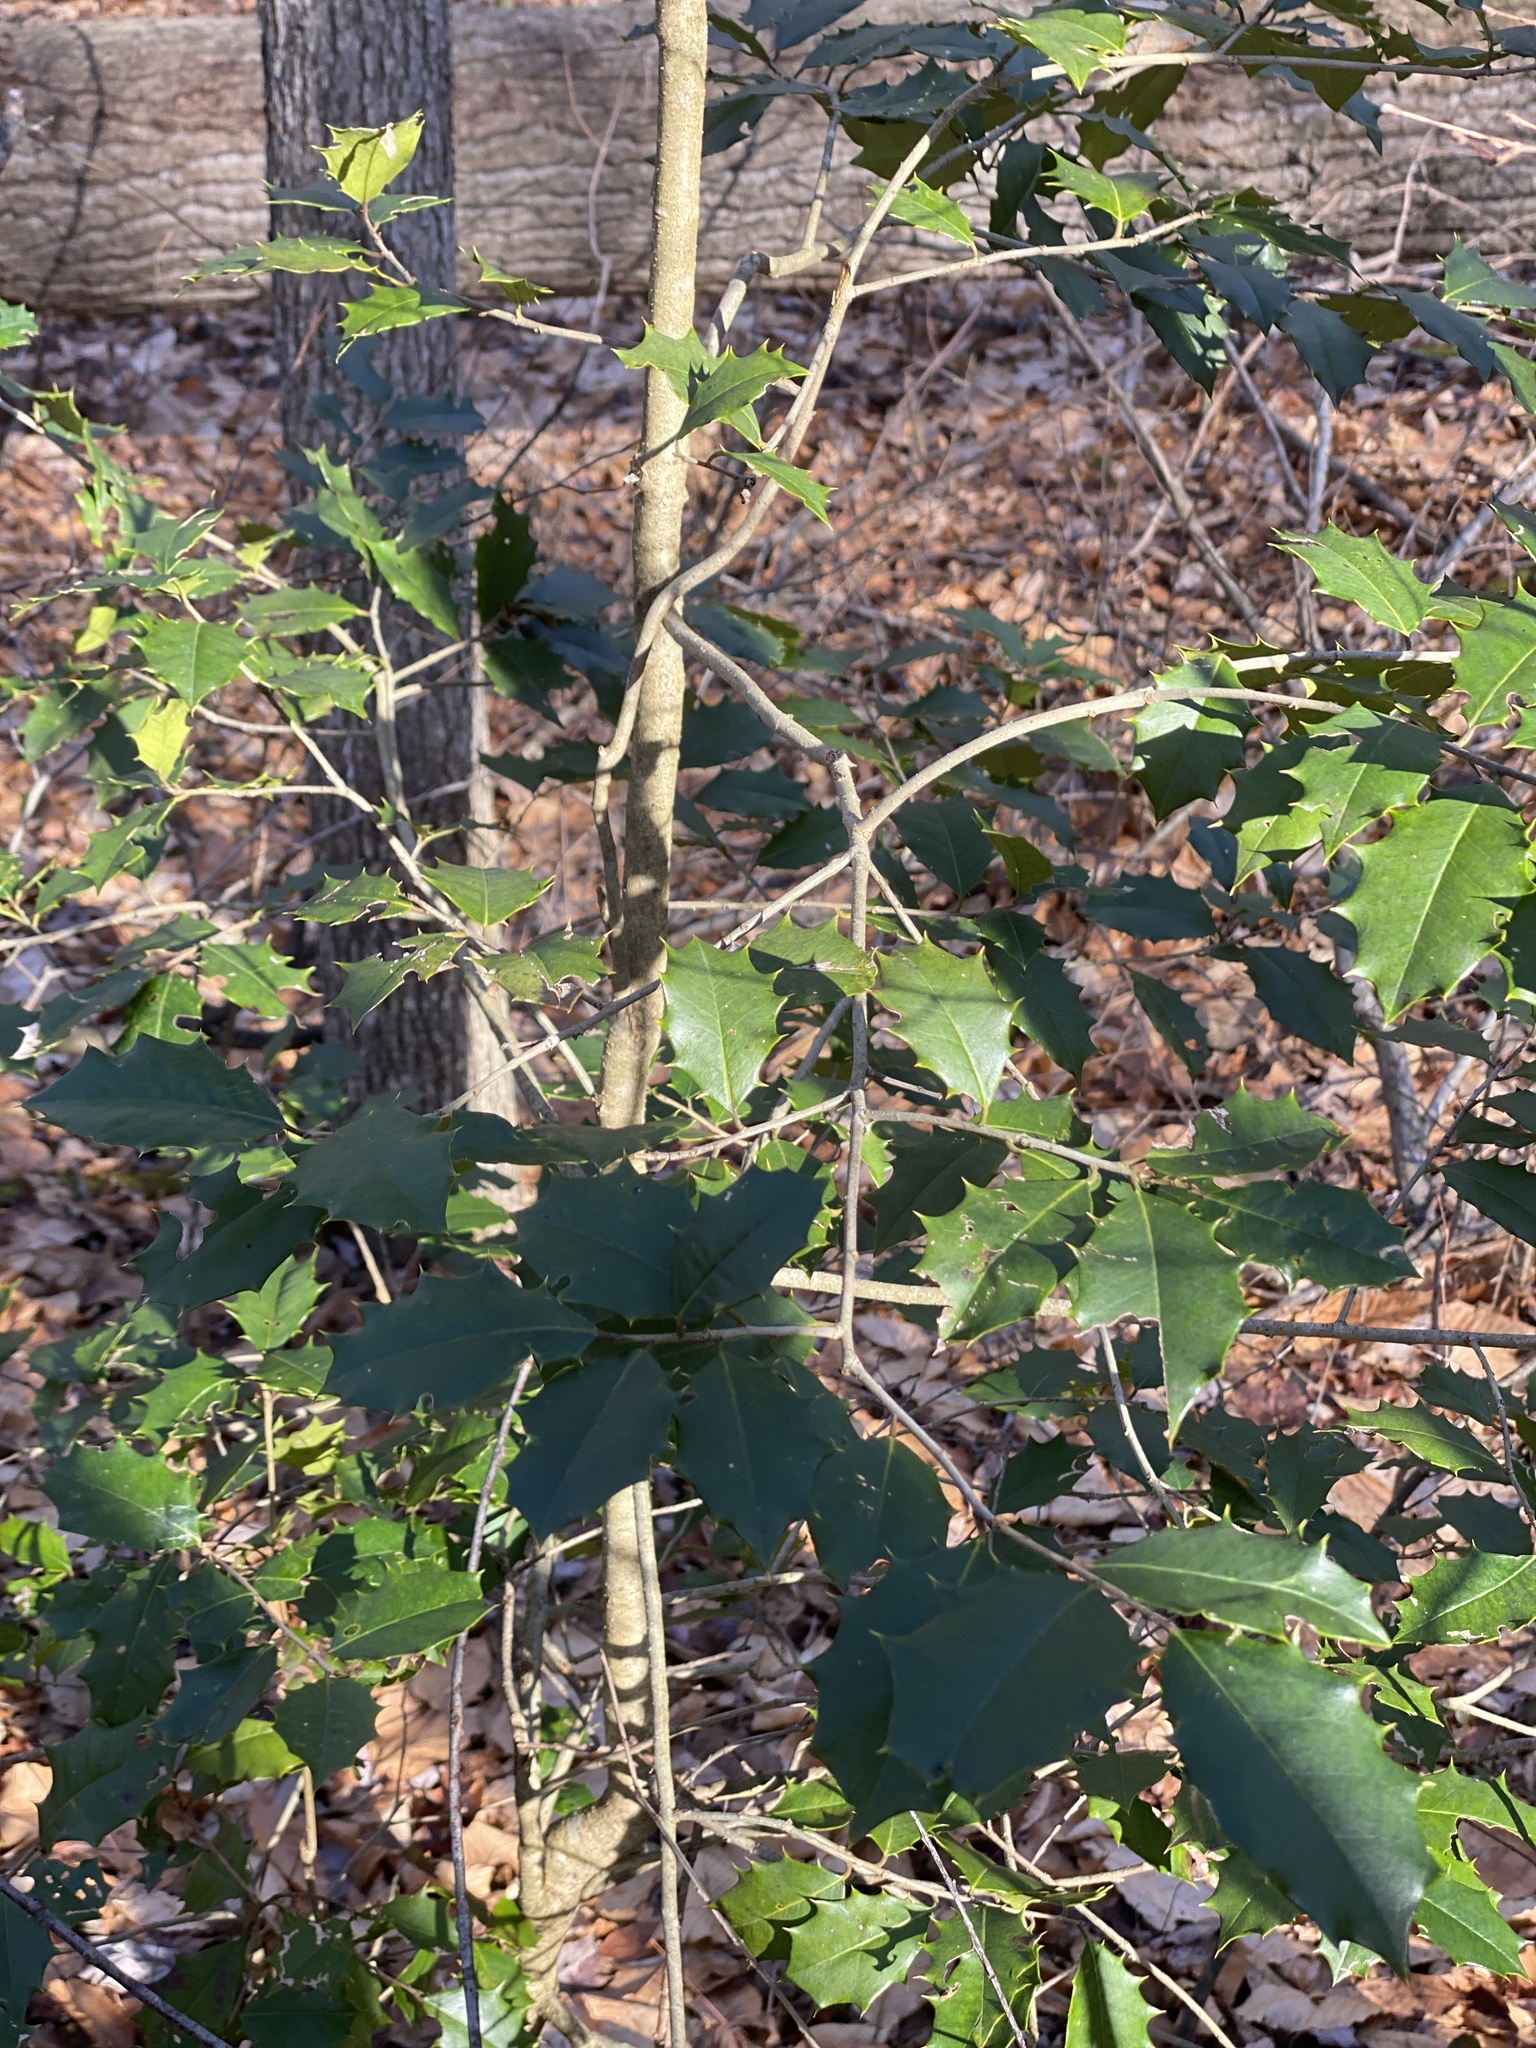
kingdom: Plantae
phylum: Tracheophyta
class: Magnoliopsida
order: Aquifoliales
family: Aquifoliaceae
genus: Ilex
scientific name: Ilex opaca
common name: American holly
